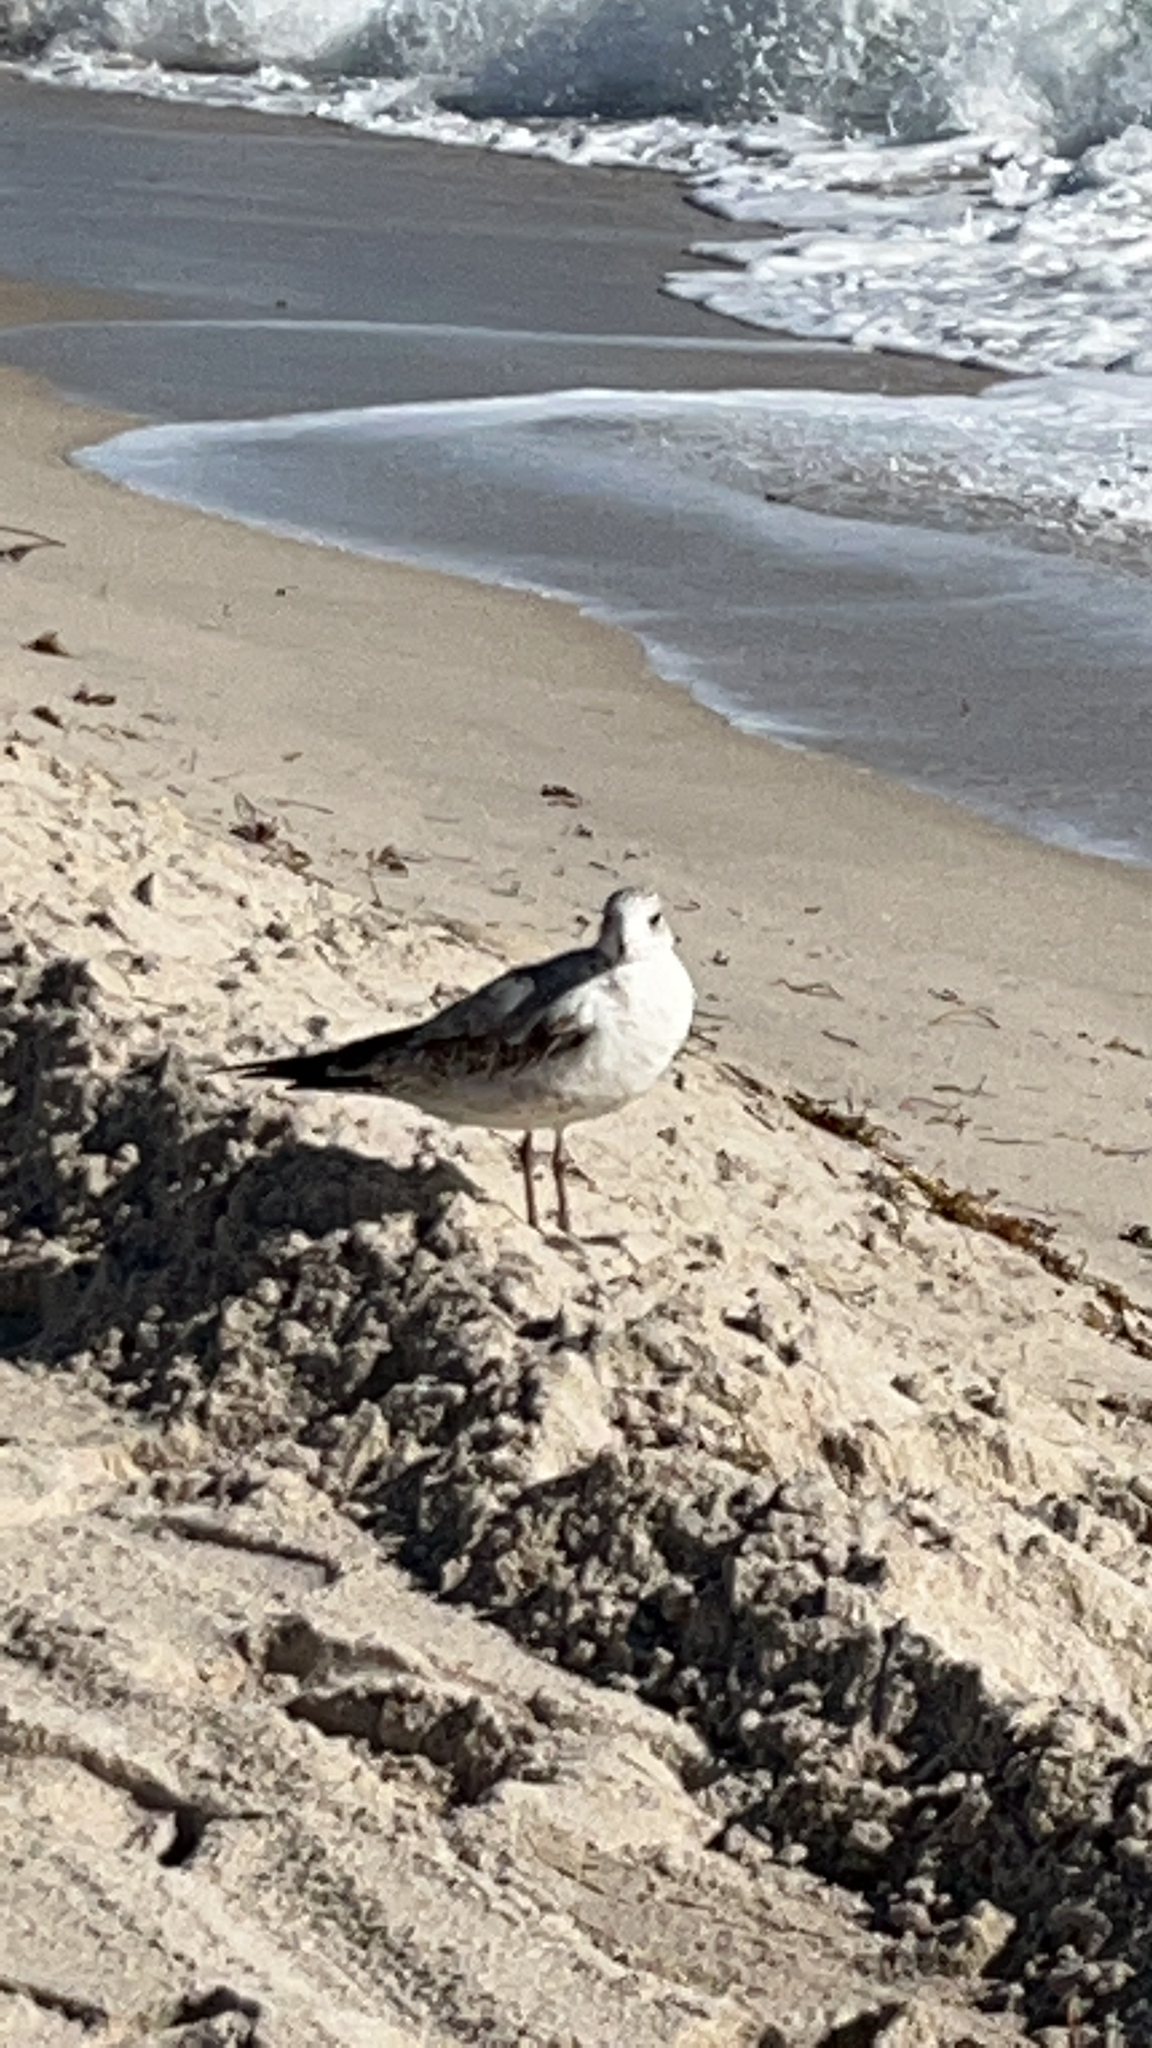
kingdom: Animalia
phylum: Chordata
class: Aves
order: Charadriiformes
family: Laridae
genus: Larus
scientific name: Larus delawarensis
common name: Ring-billed gull
